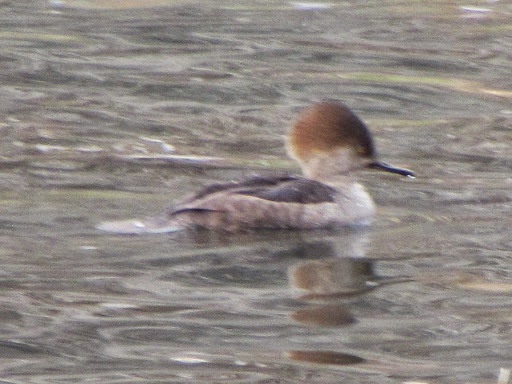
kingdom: Animalia
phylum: Chordata
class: Aves
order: Anseriformes
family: Anatidae
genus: Lophodytes
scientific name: Lophodytes cucullatus
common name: Hooded merganser
